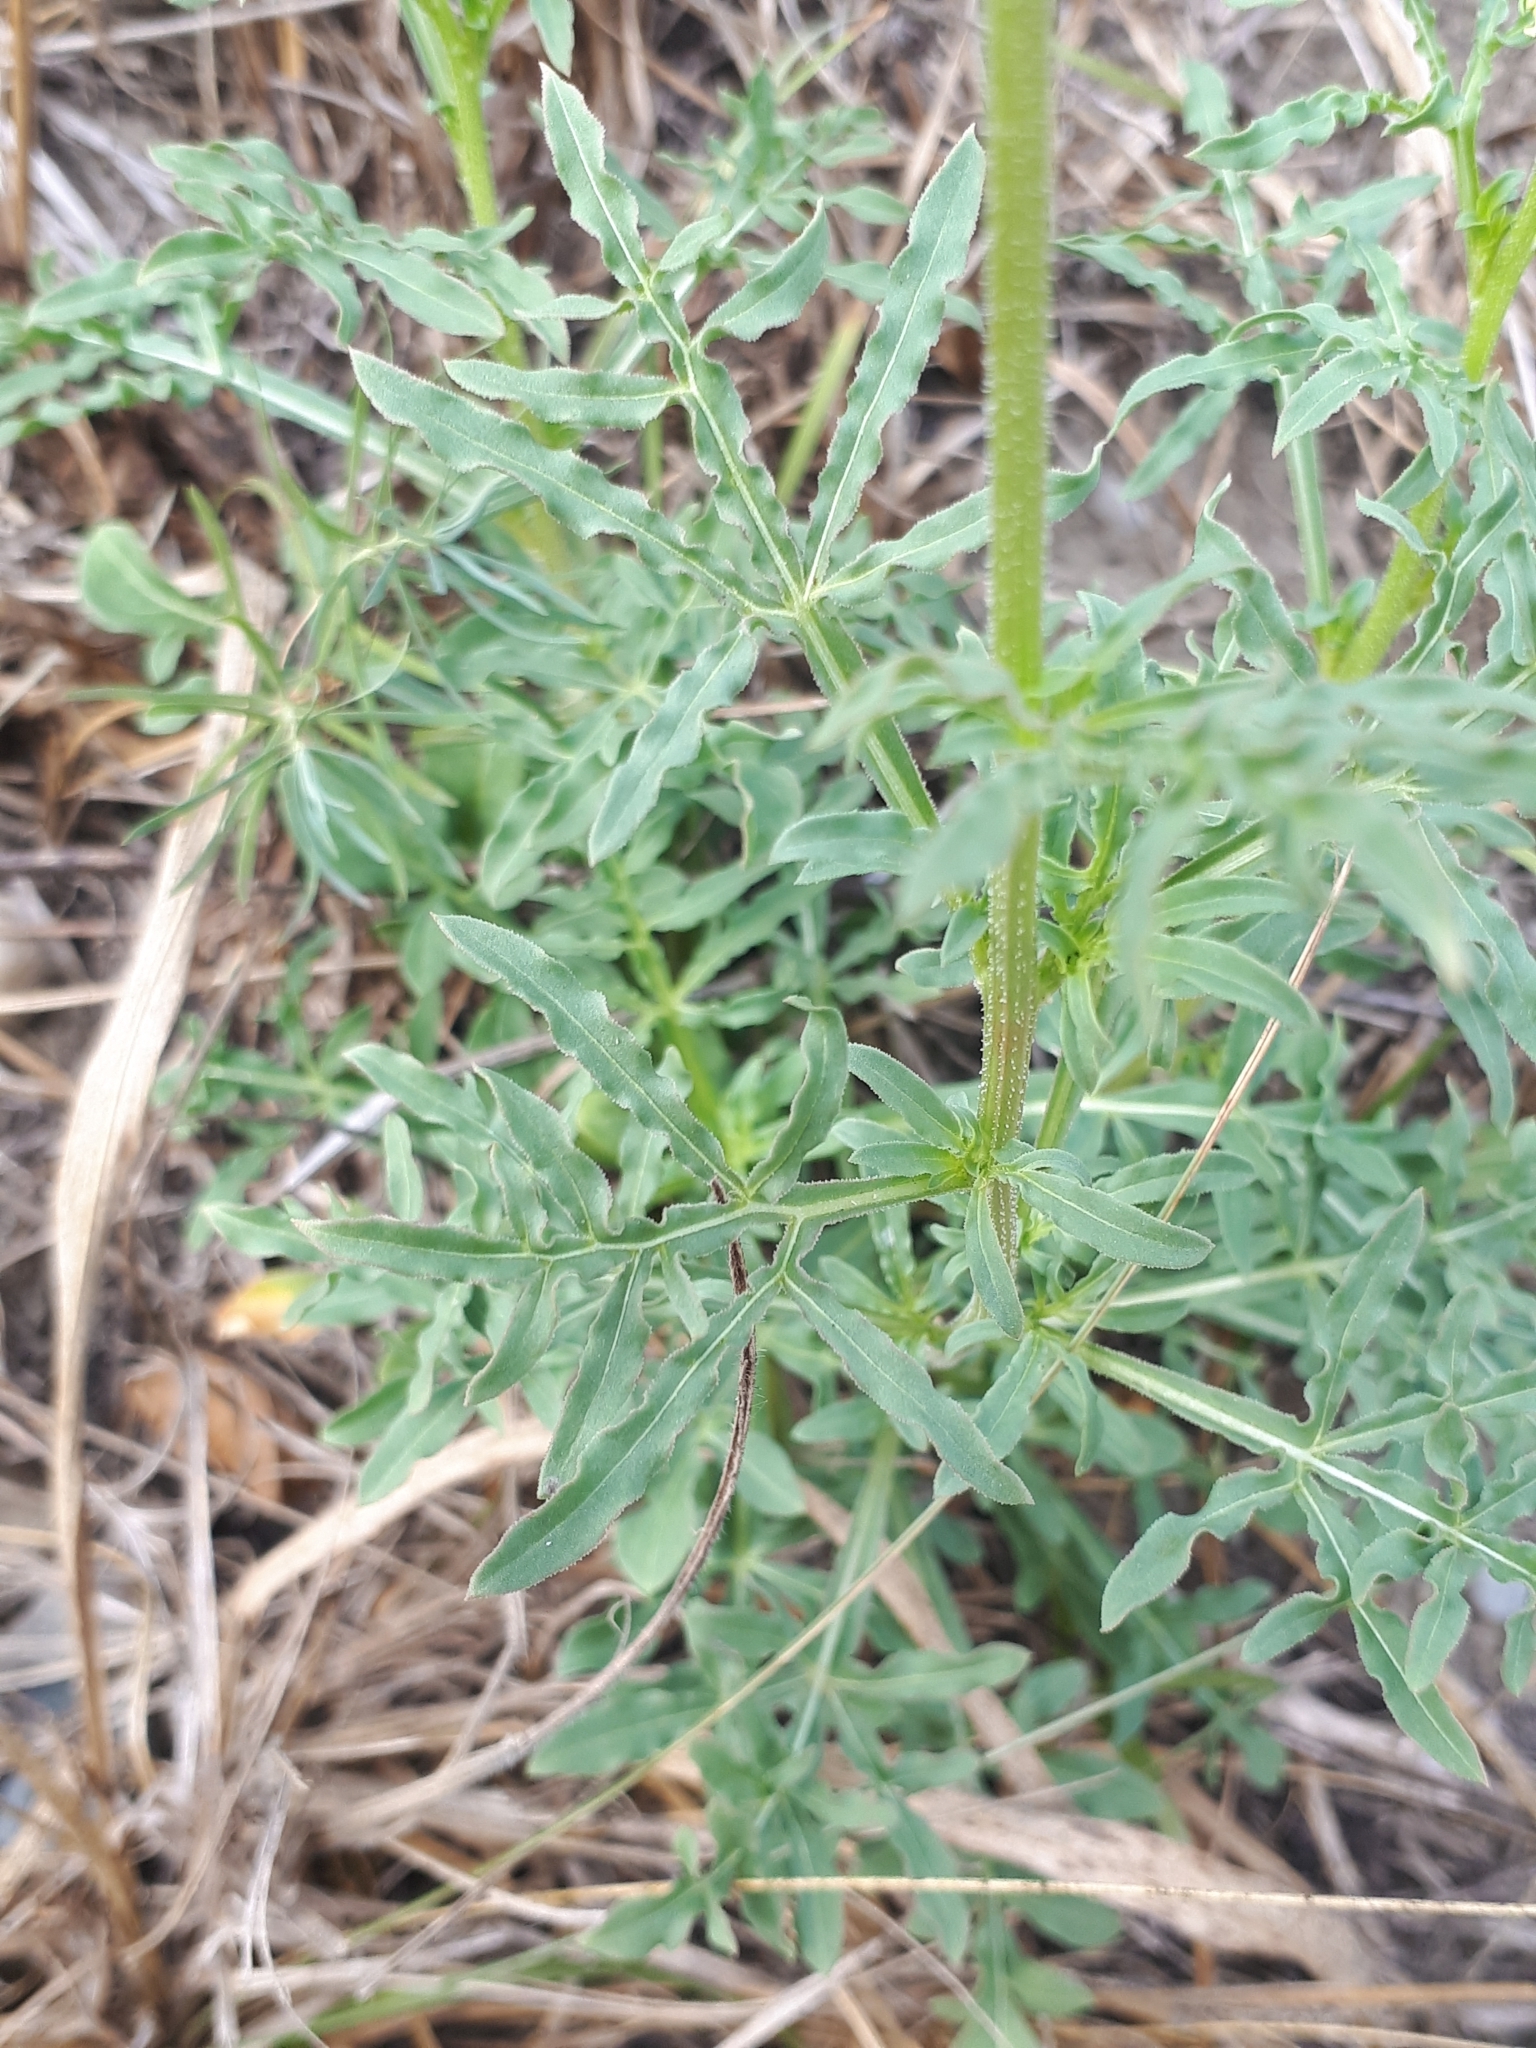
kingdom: Plantae
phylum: Tracheophyta
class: Magnoliopsida
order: Brassicales
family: Resedaceae
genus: Reseda
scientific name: Reseda lutea
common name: Wild mignonette
